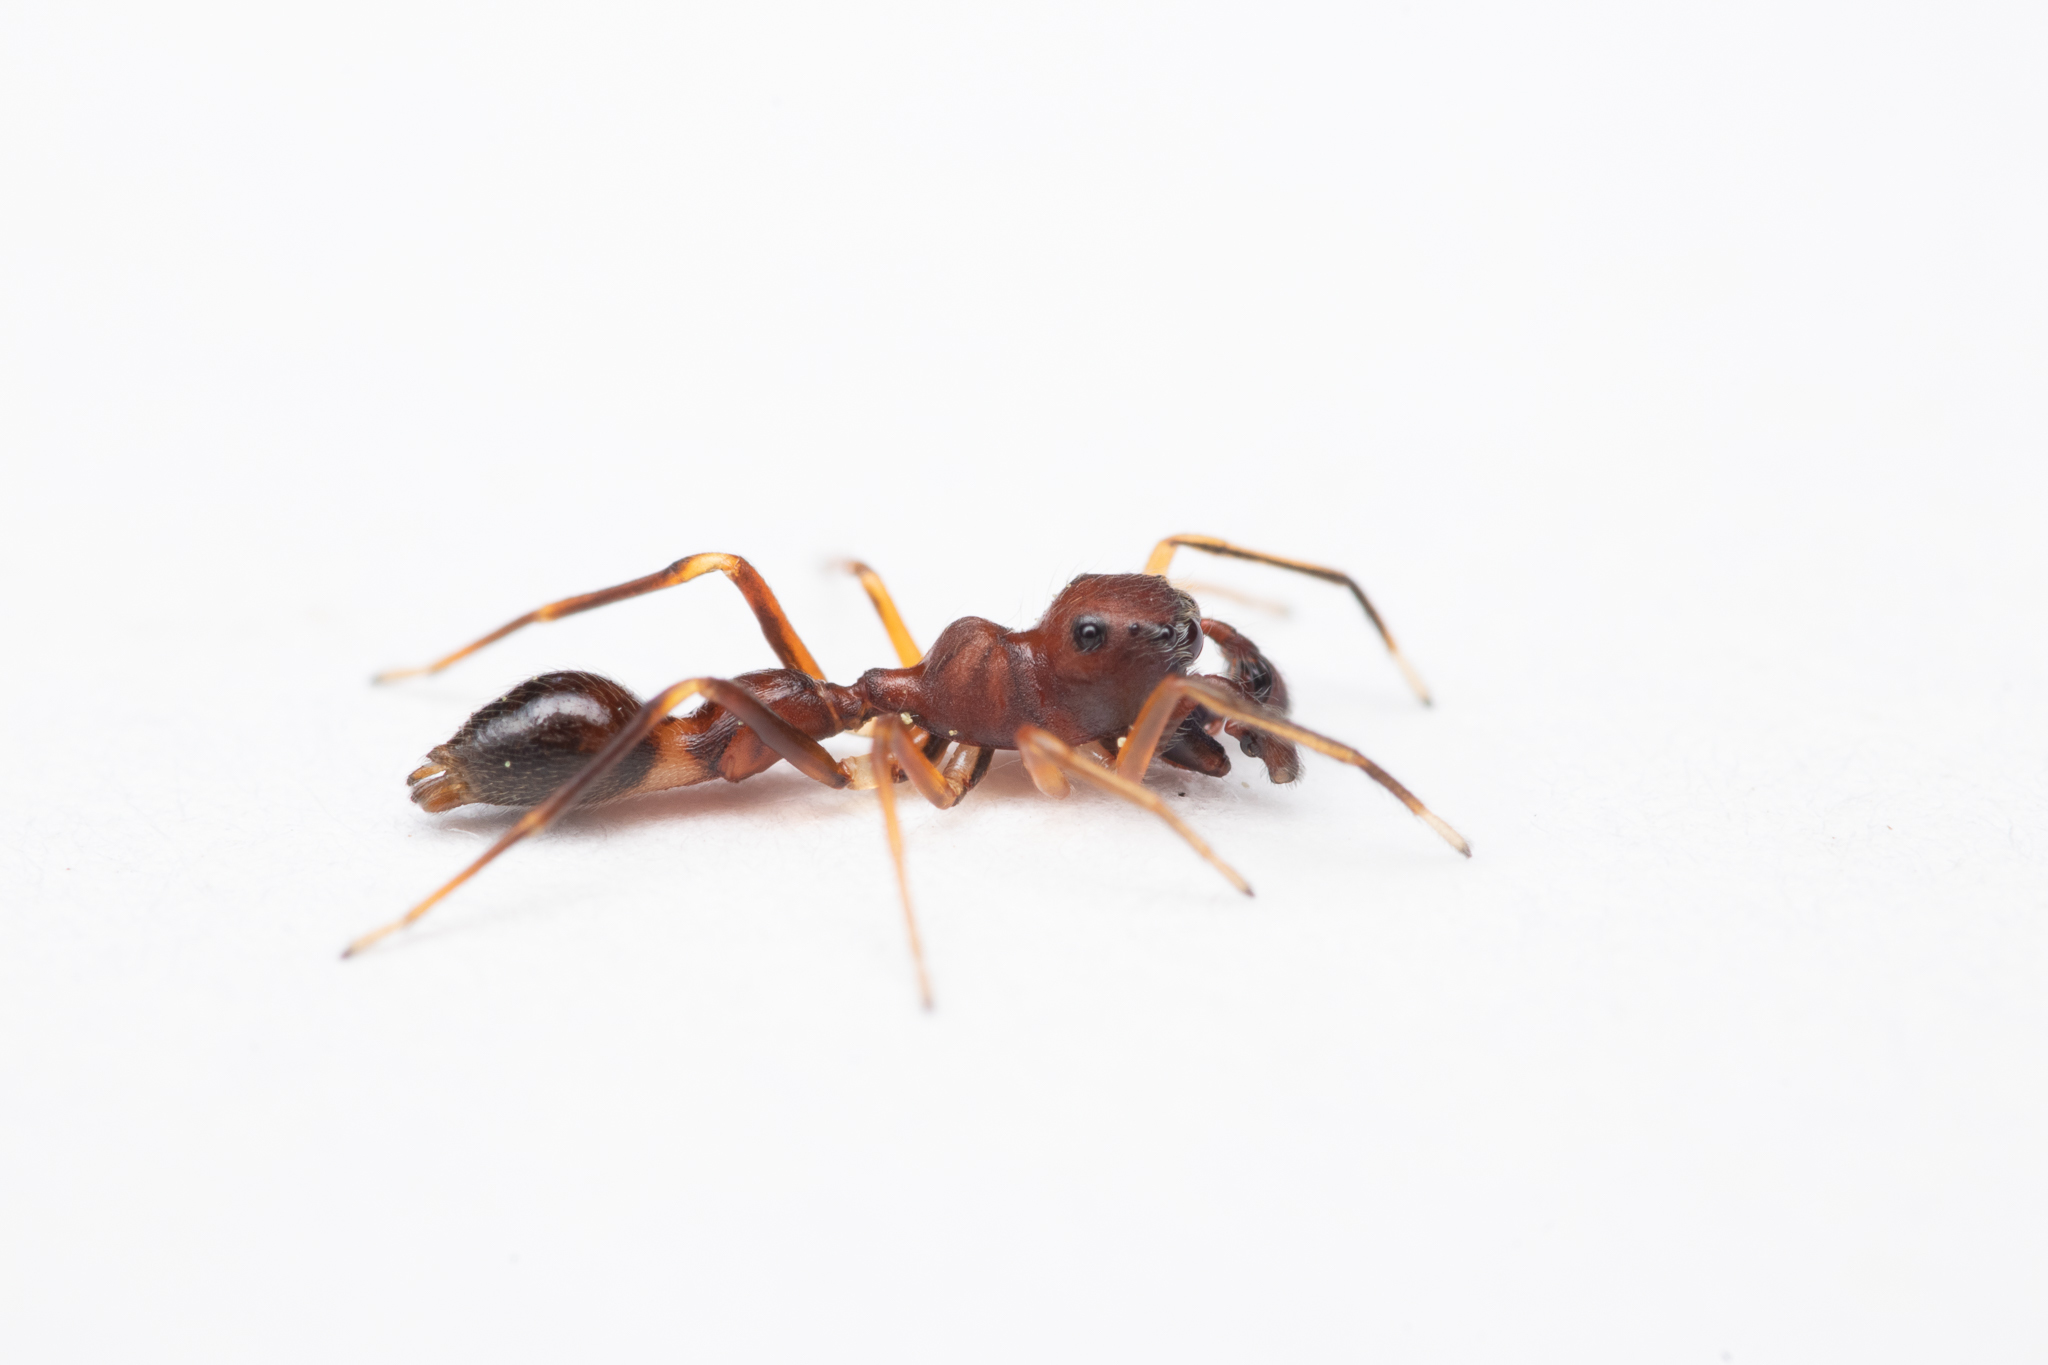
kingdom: Animalia
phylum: Arthropoda
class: Arachnida
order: Araneae
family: Salticidae
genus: Synemosyna
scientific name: Synemosyna formica
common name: Slender ant-mimic jumping spider
